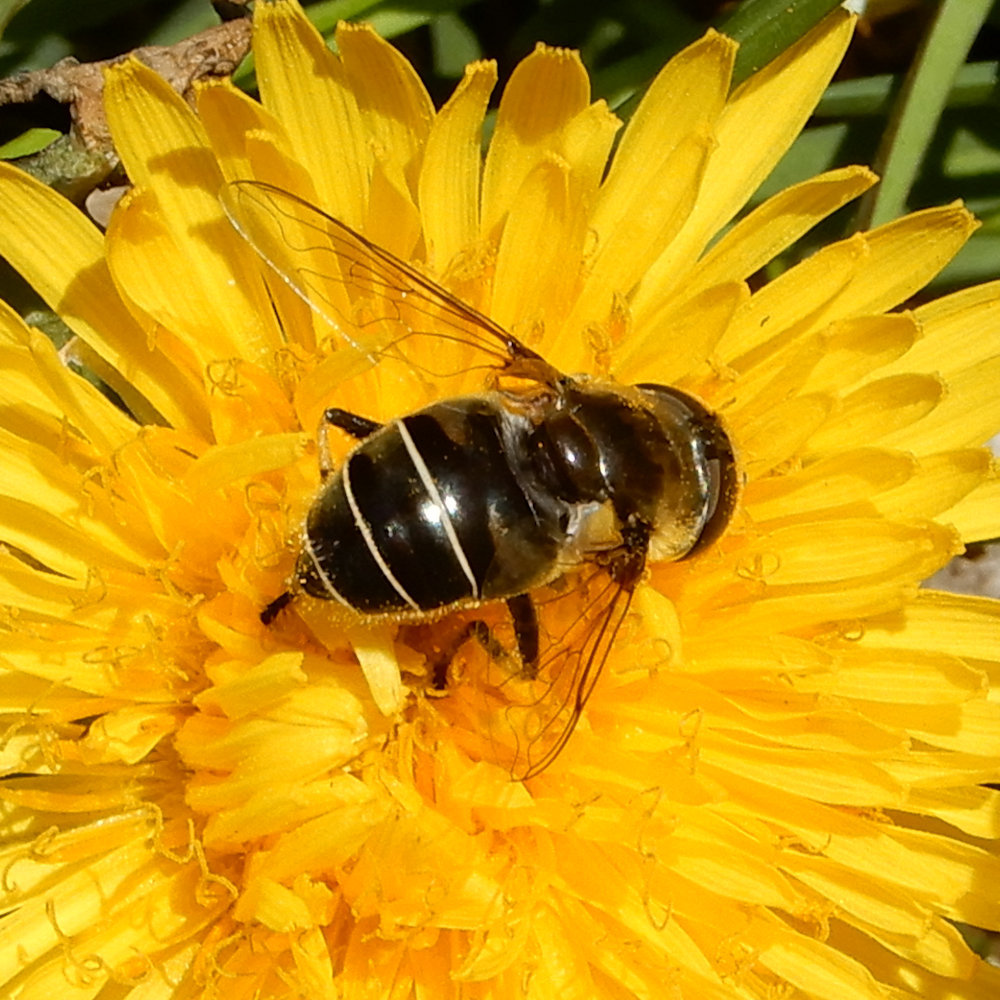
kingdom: Animalia
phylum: Arthropoda
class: Insecta
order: Diptera
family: Syrphidae
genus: Eristalis
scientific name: Eristalis dimidiata
